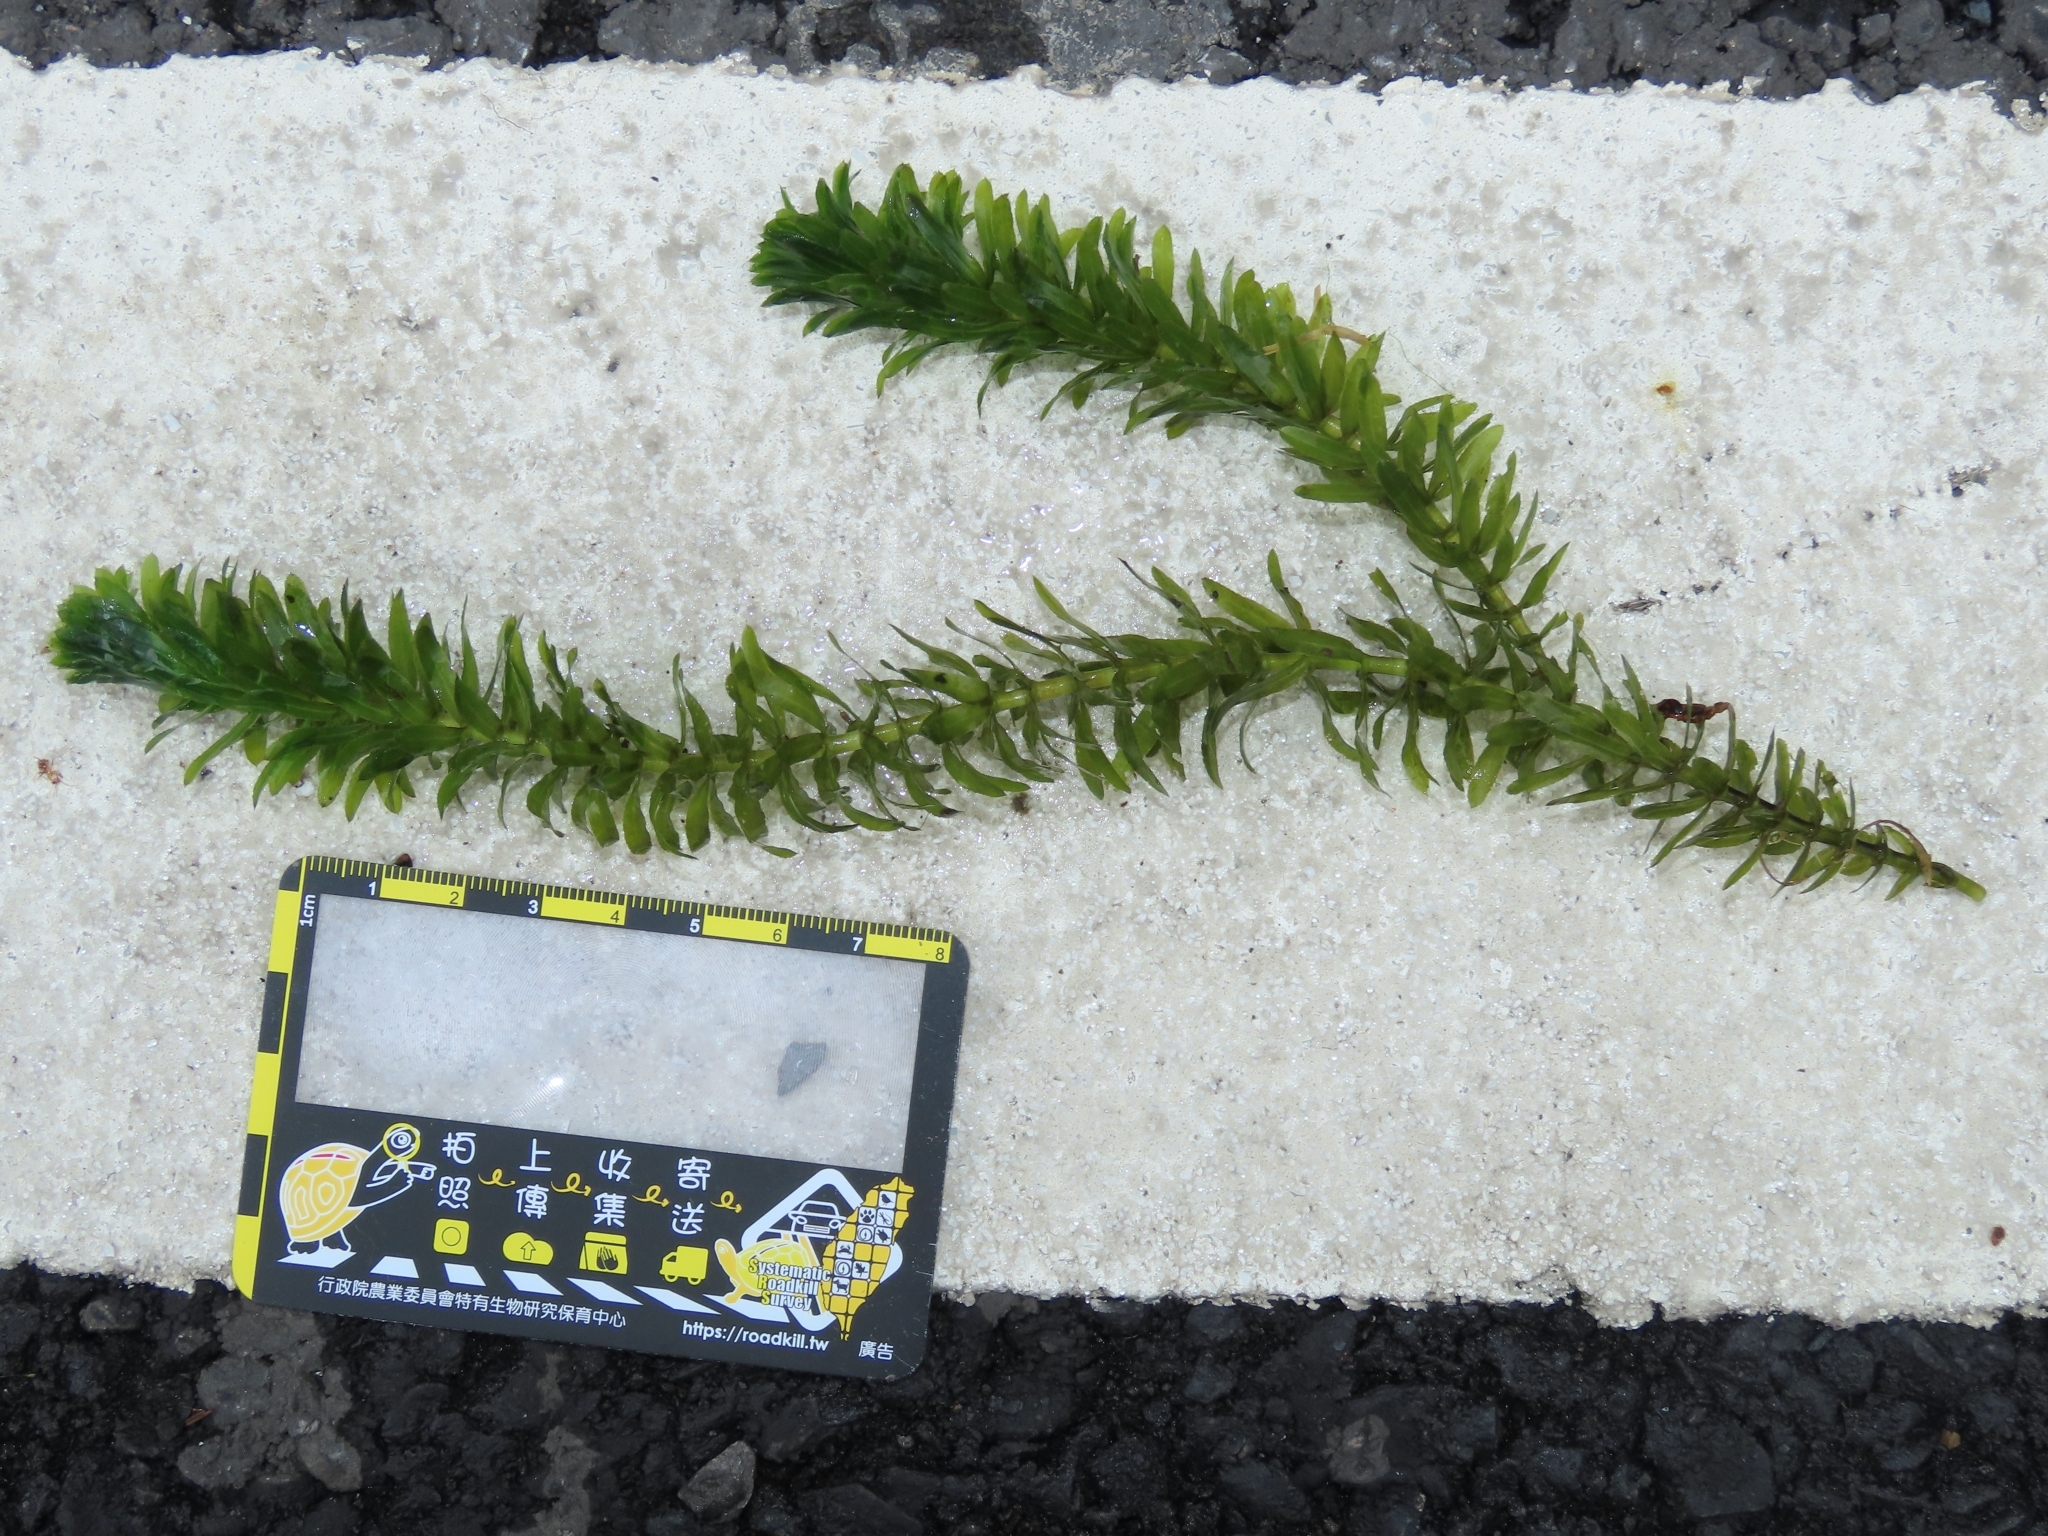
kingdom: Plantae
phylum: Tracheophyta
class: Liliopsida
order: Alismatales
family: Hydrocharitaceae
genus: Elodea
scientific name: Elodea densa
